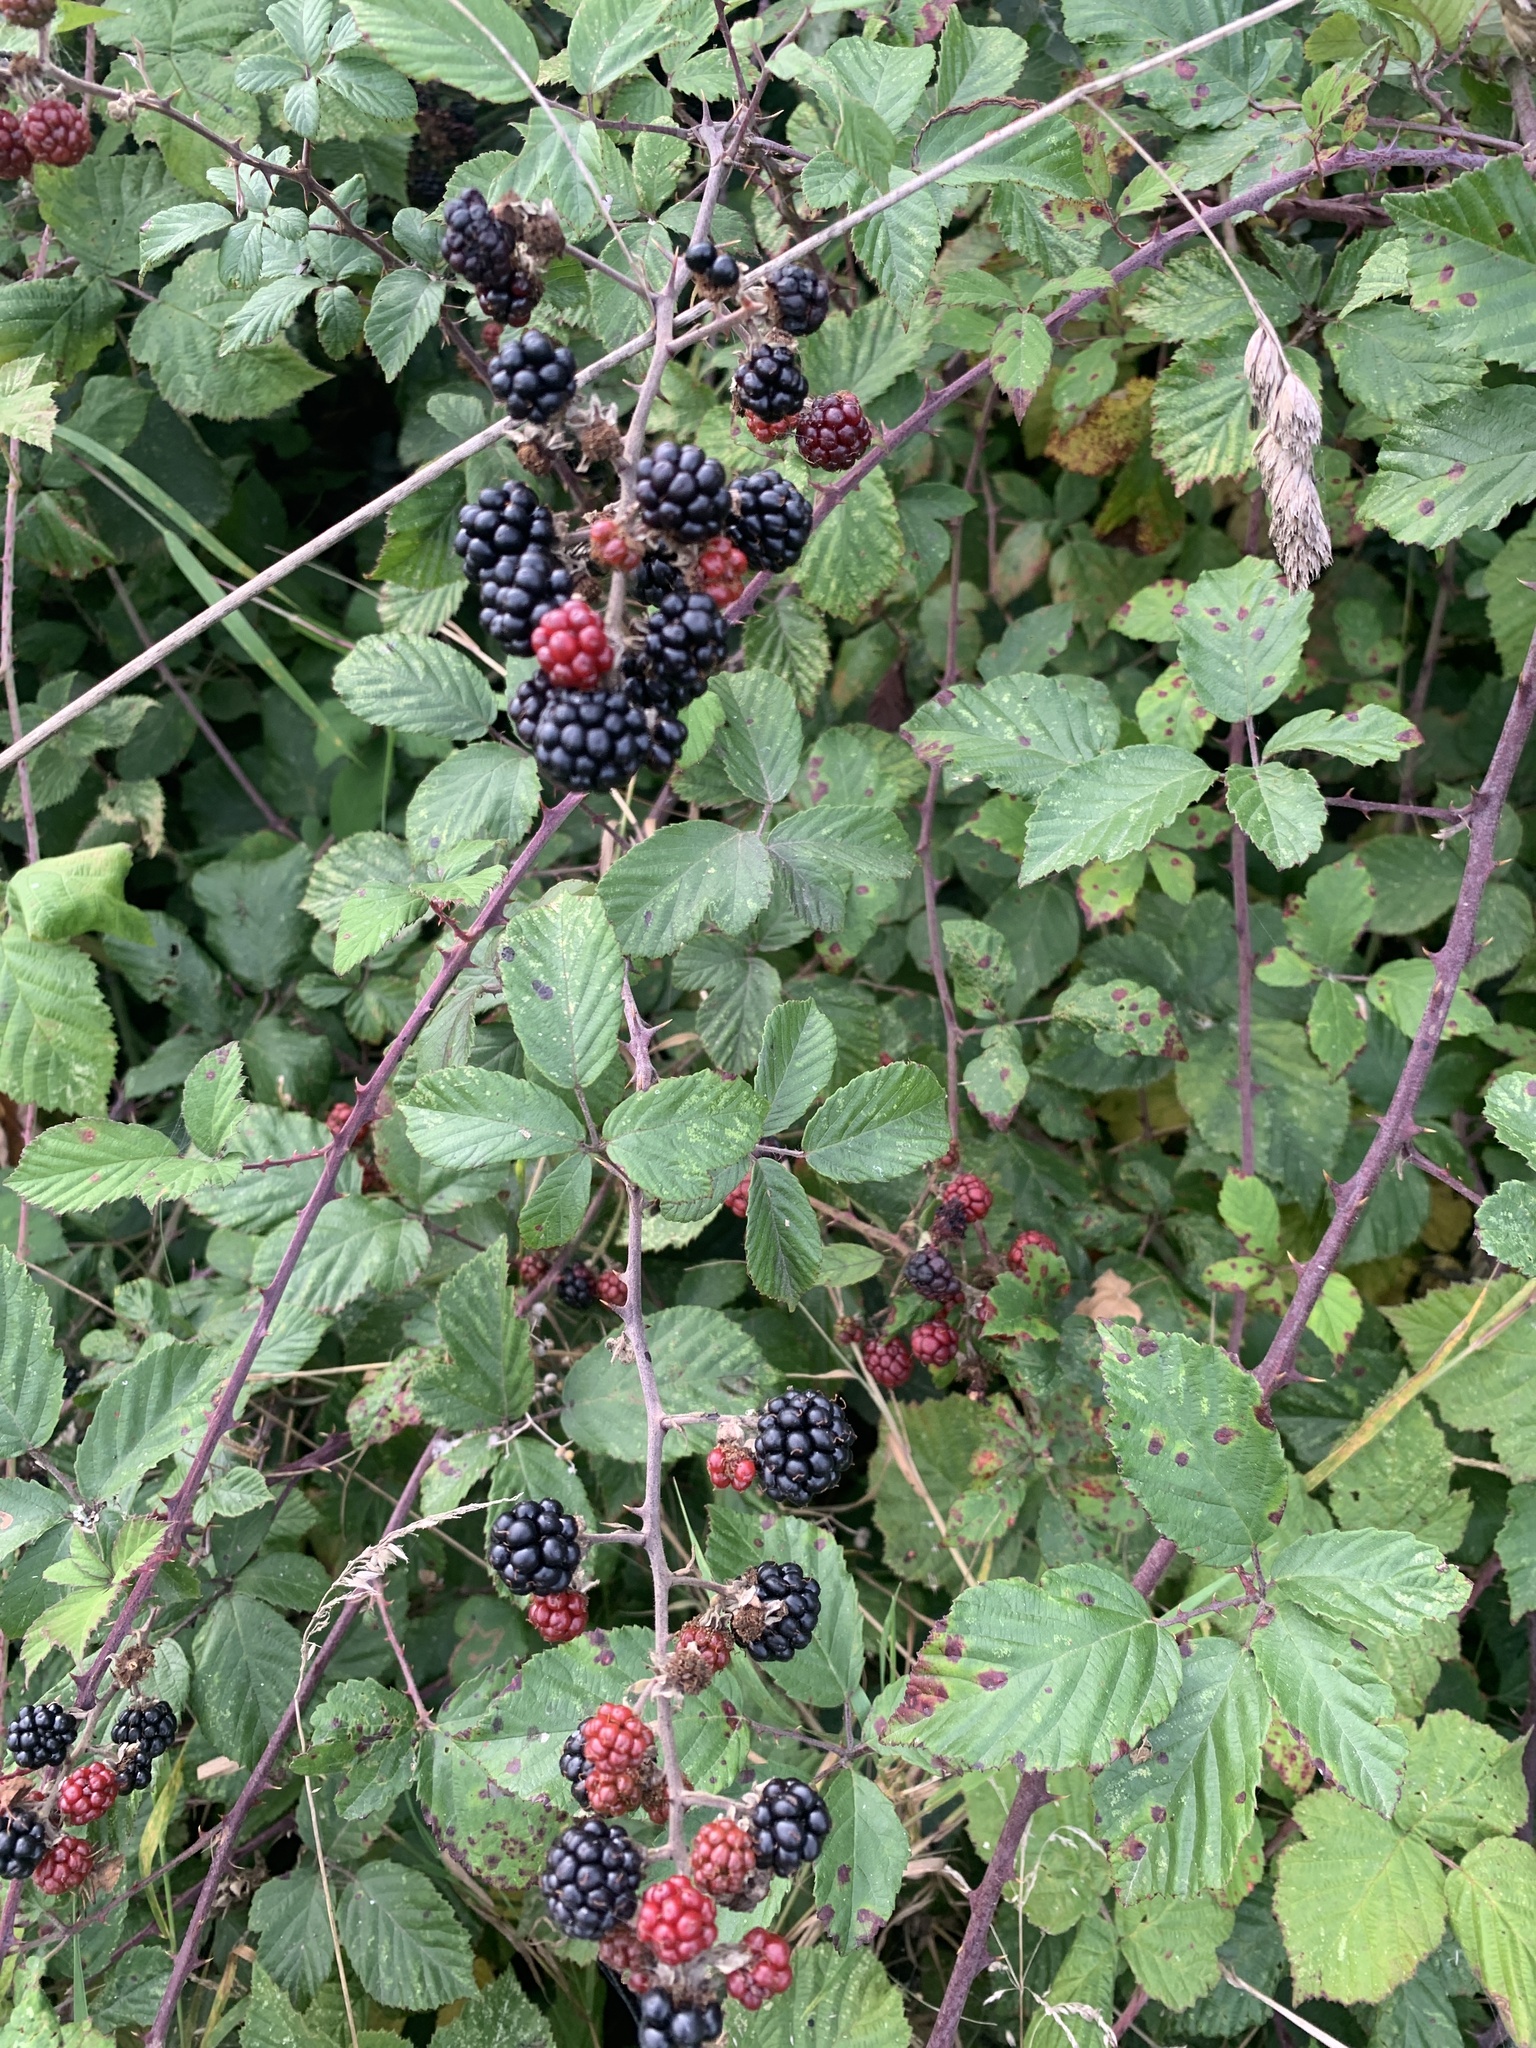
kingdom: Plantae
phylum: Tracheophyta
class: Magnoliopsida
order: Rosales
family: Rosaceae
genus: Rubus
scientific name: Rubus fruticosus
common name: Blackberry, bramble
